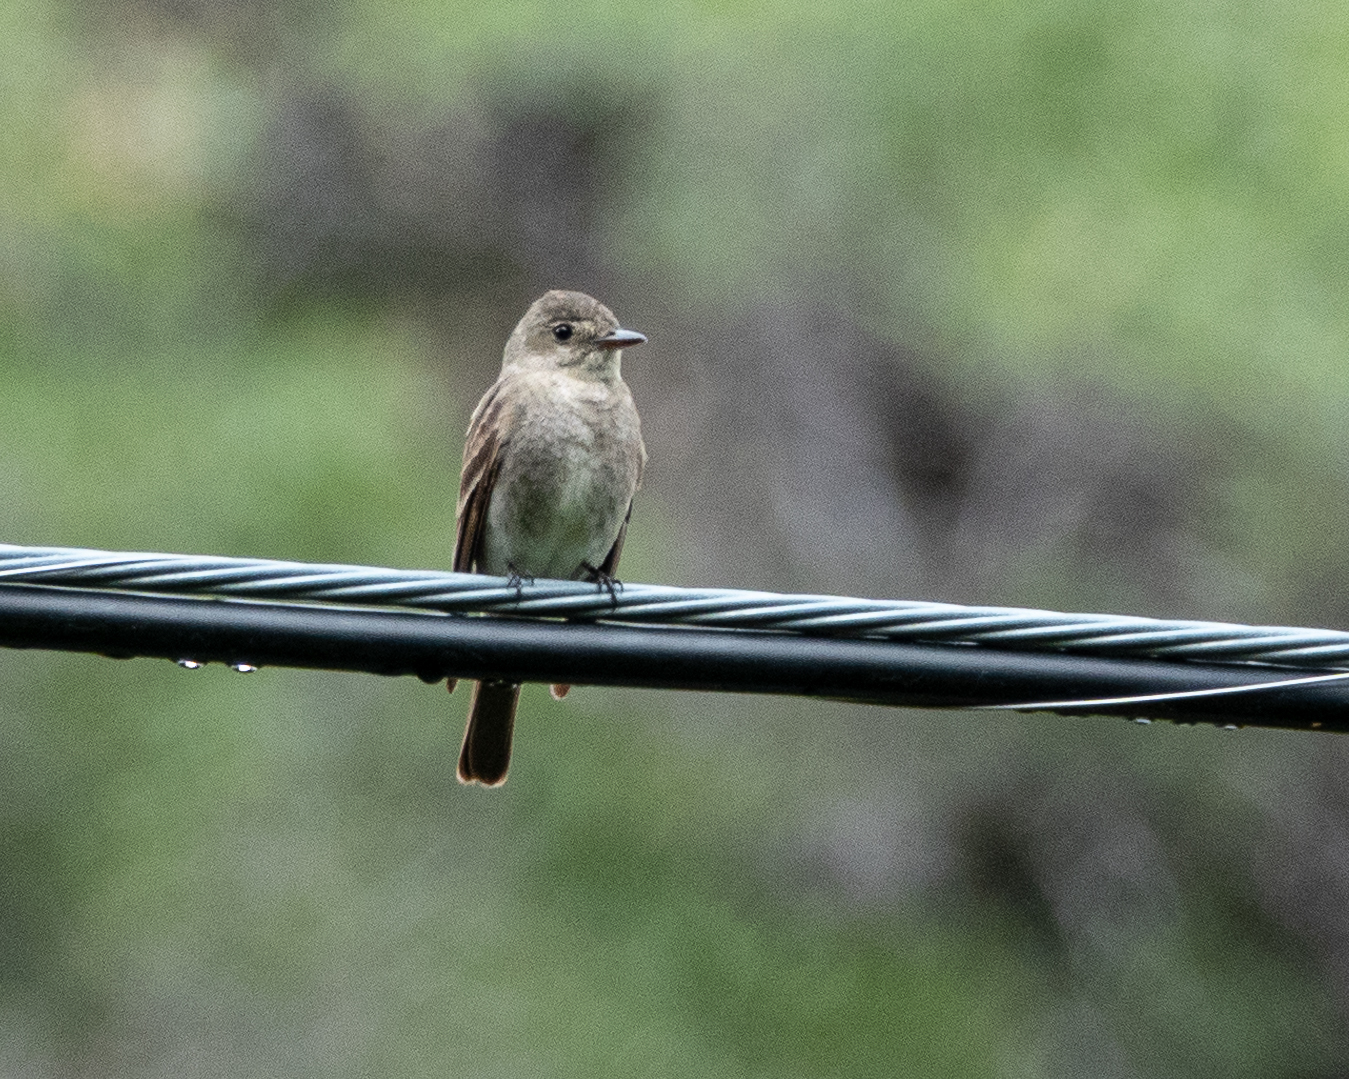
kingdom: Animalia
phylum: Chordata
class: Aves
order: Passeriformes
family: Tyrannidae
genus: Contopus
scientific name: Contopus sordidulus
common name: Western wood-pewee
